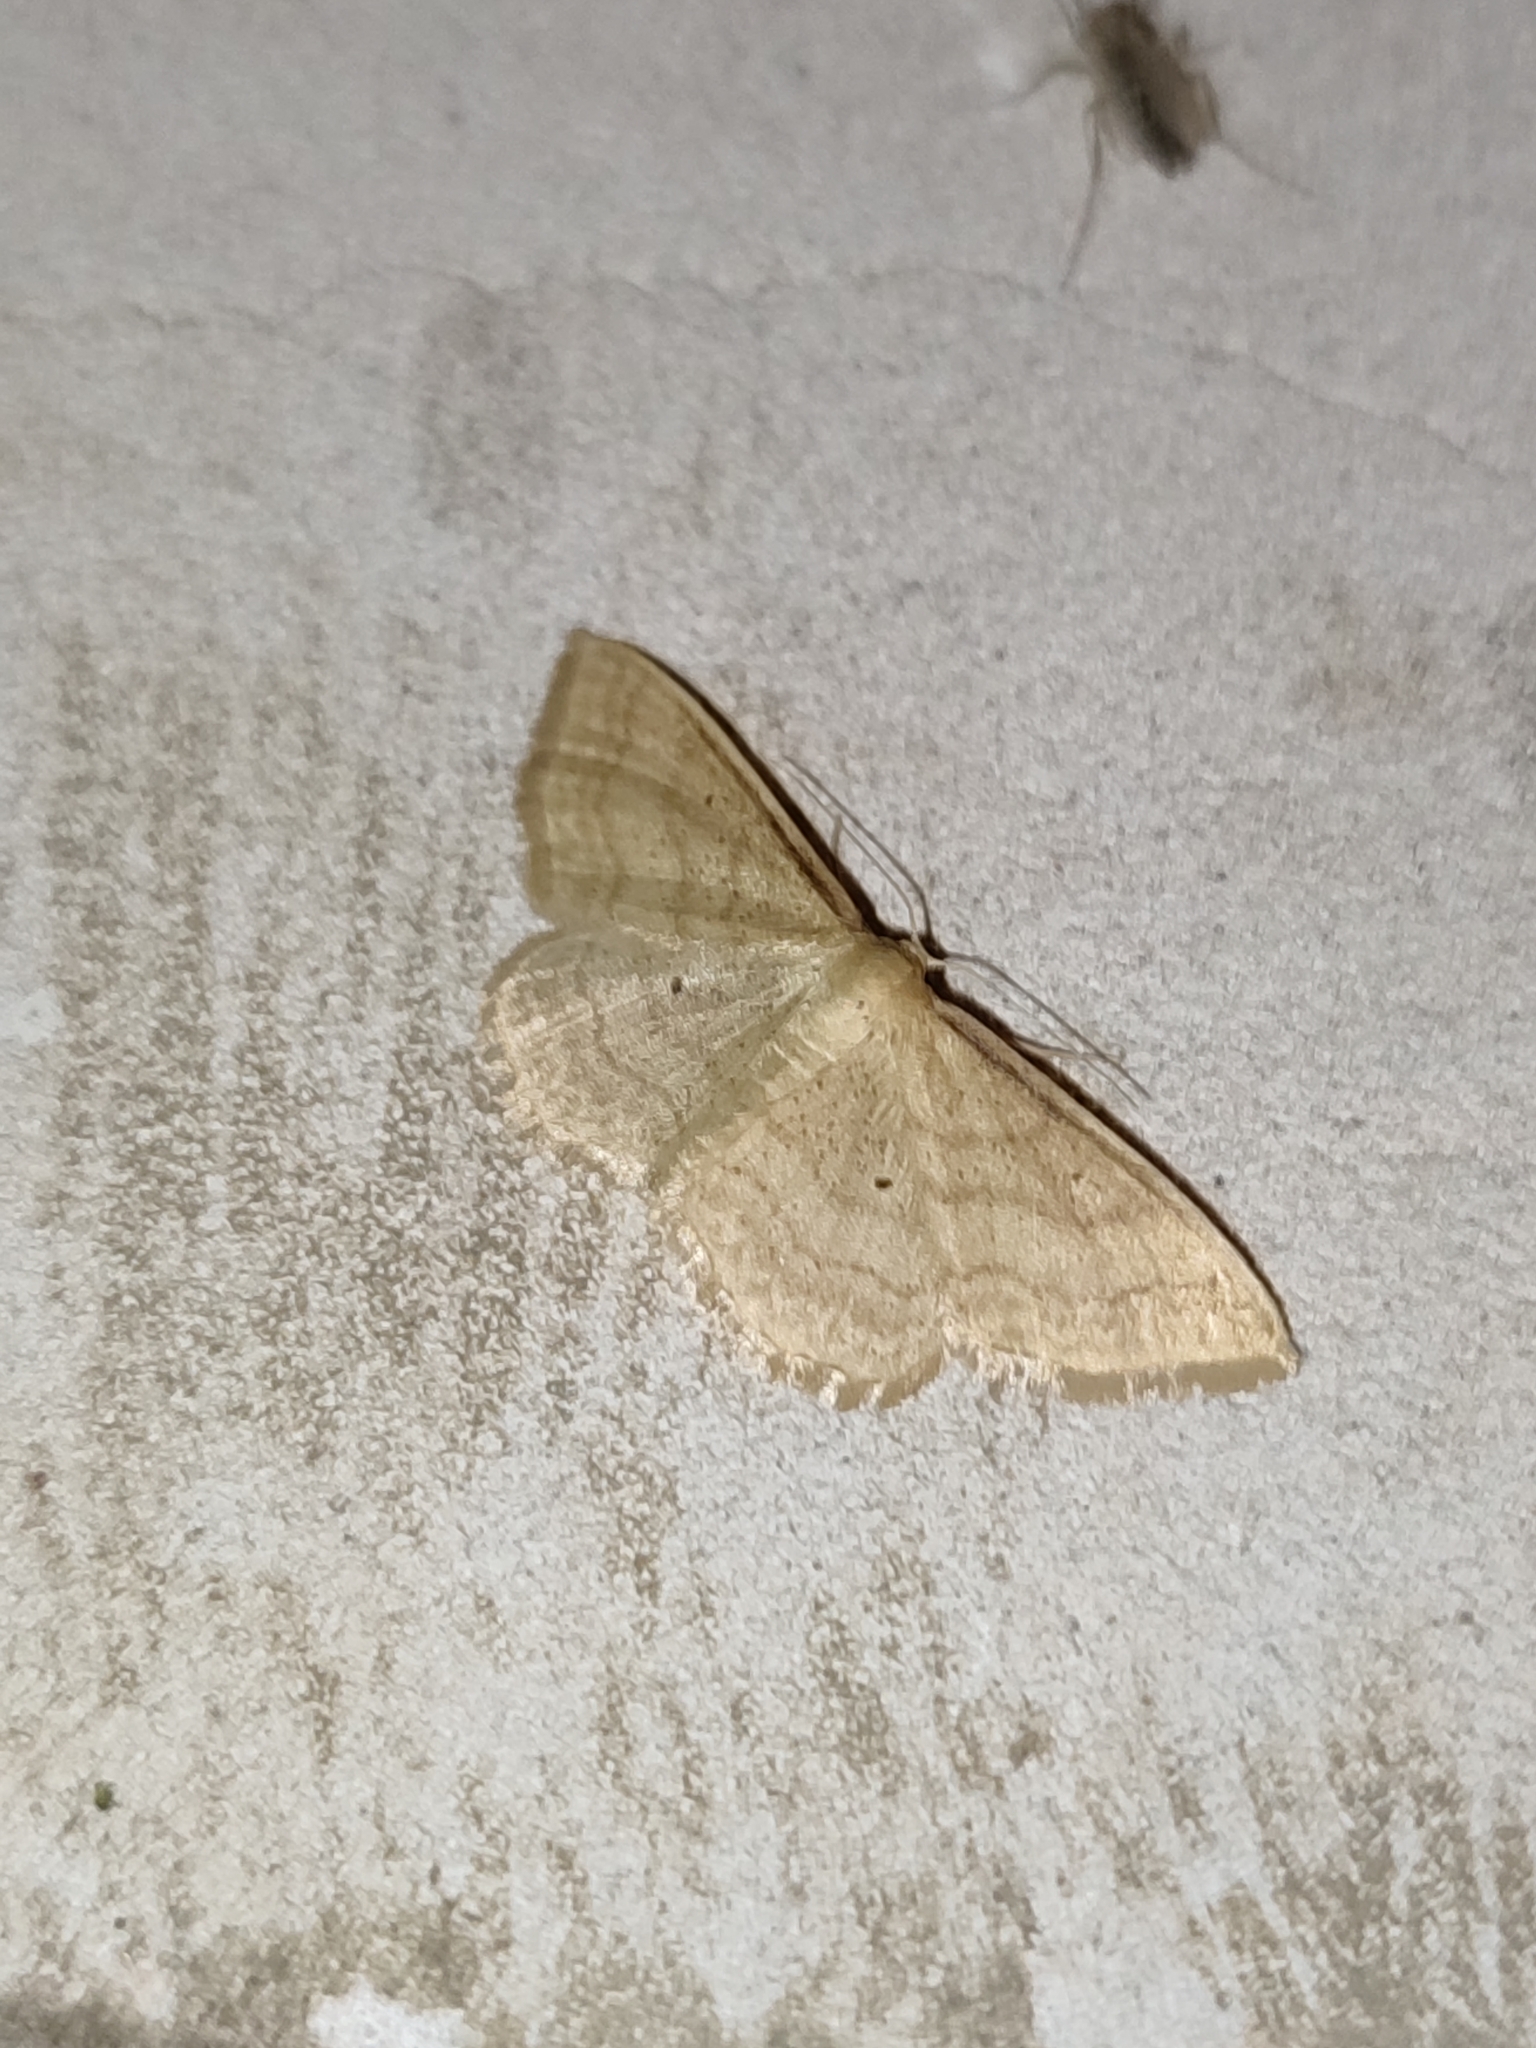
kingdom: Animalia
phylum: Arthropoda
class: Insecta
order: Lepidoptera
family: Geometridae
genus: Idaea
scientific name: Idaea rufaria
